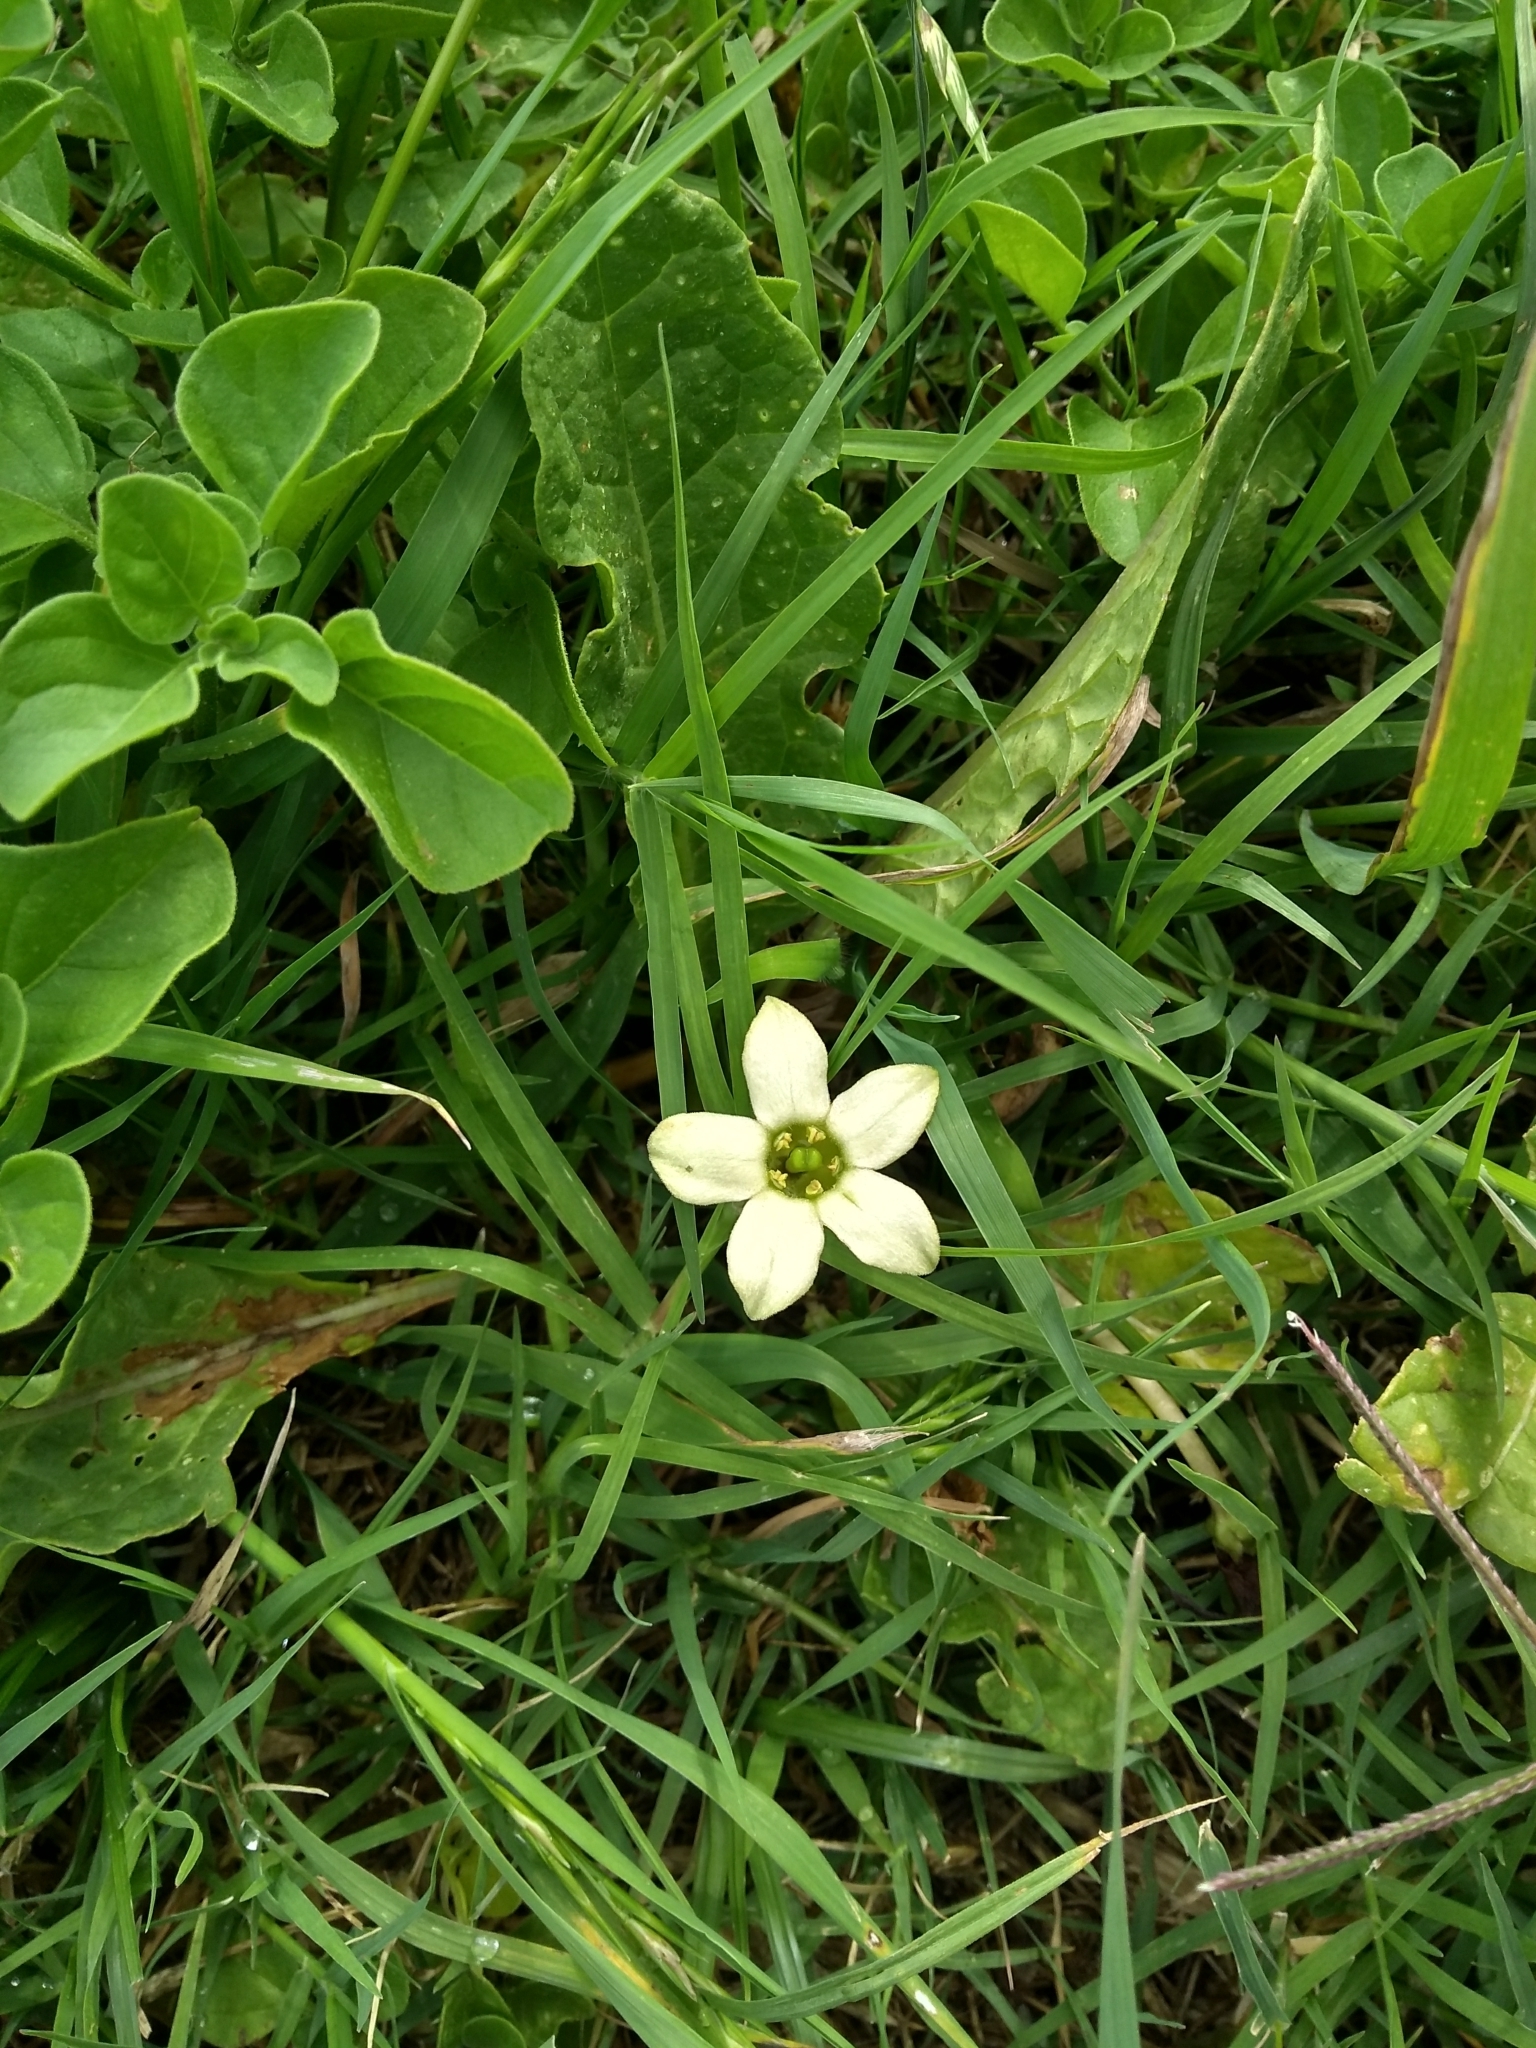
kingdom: Plantae
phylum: Tracheophyta
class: Magnoliopsida
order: Solanales
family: Solanaceae
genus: Jaborosa
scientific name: Jaborosa runcinata
